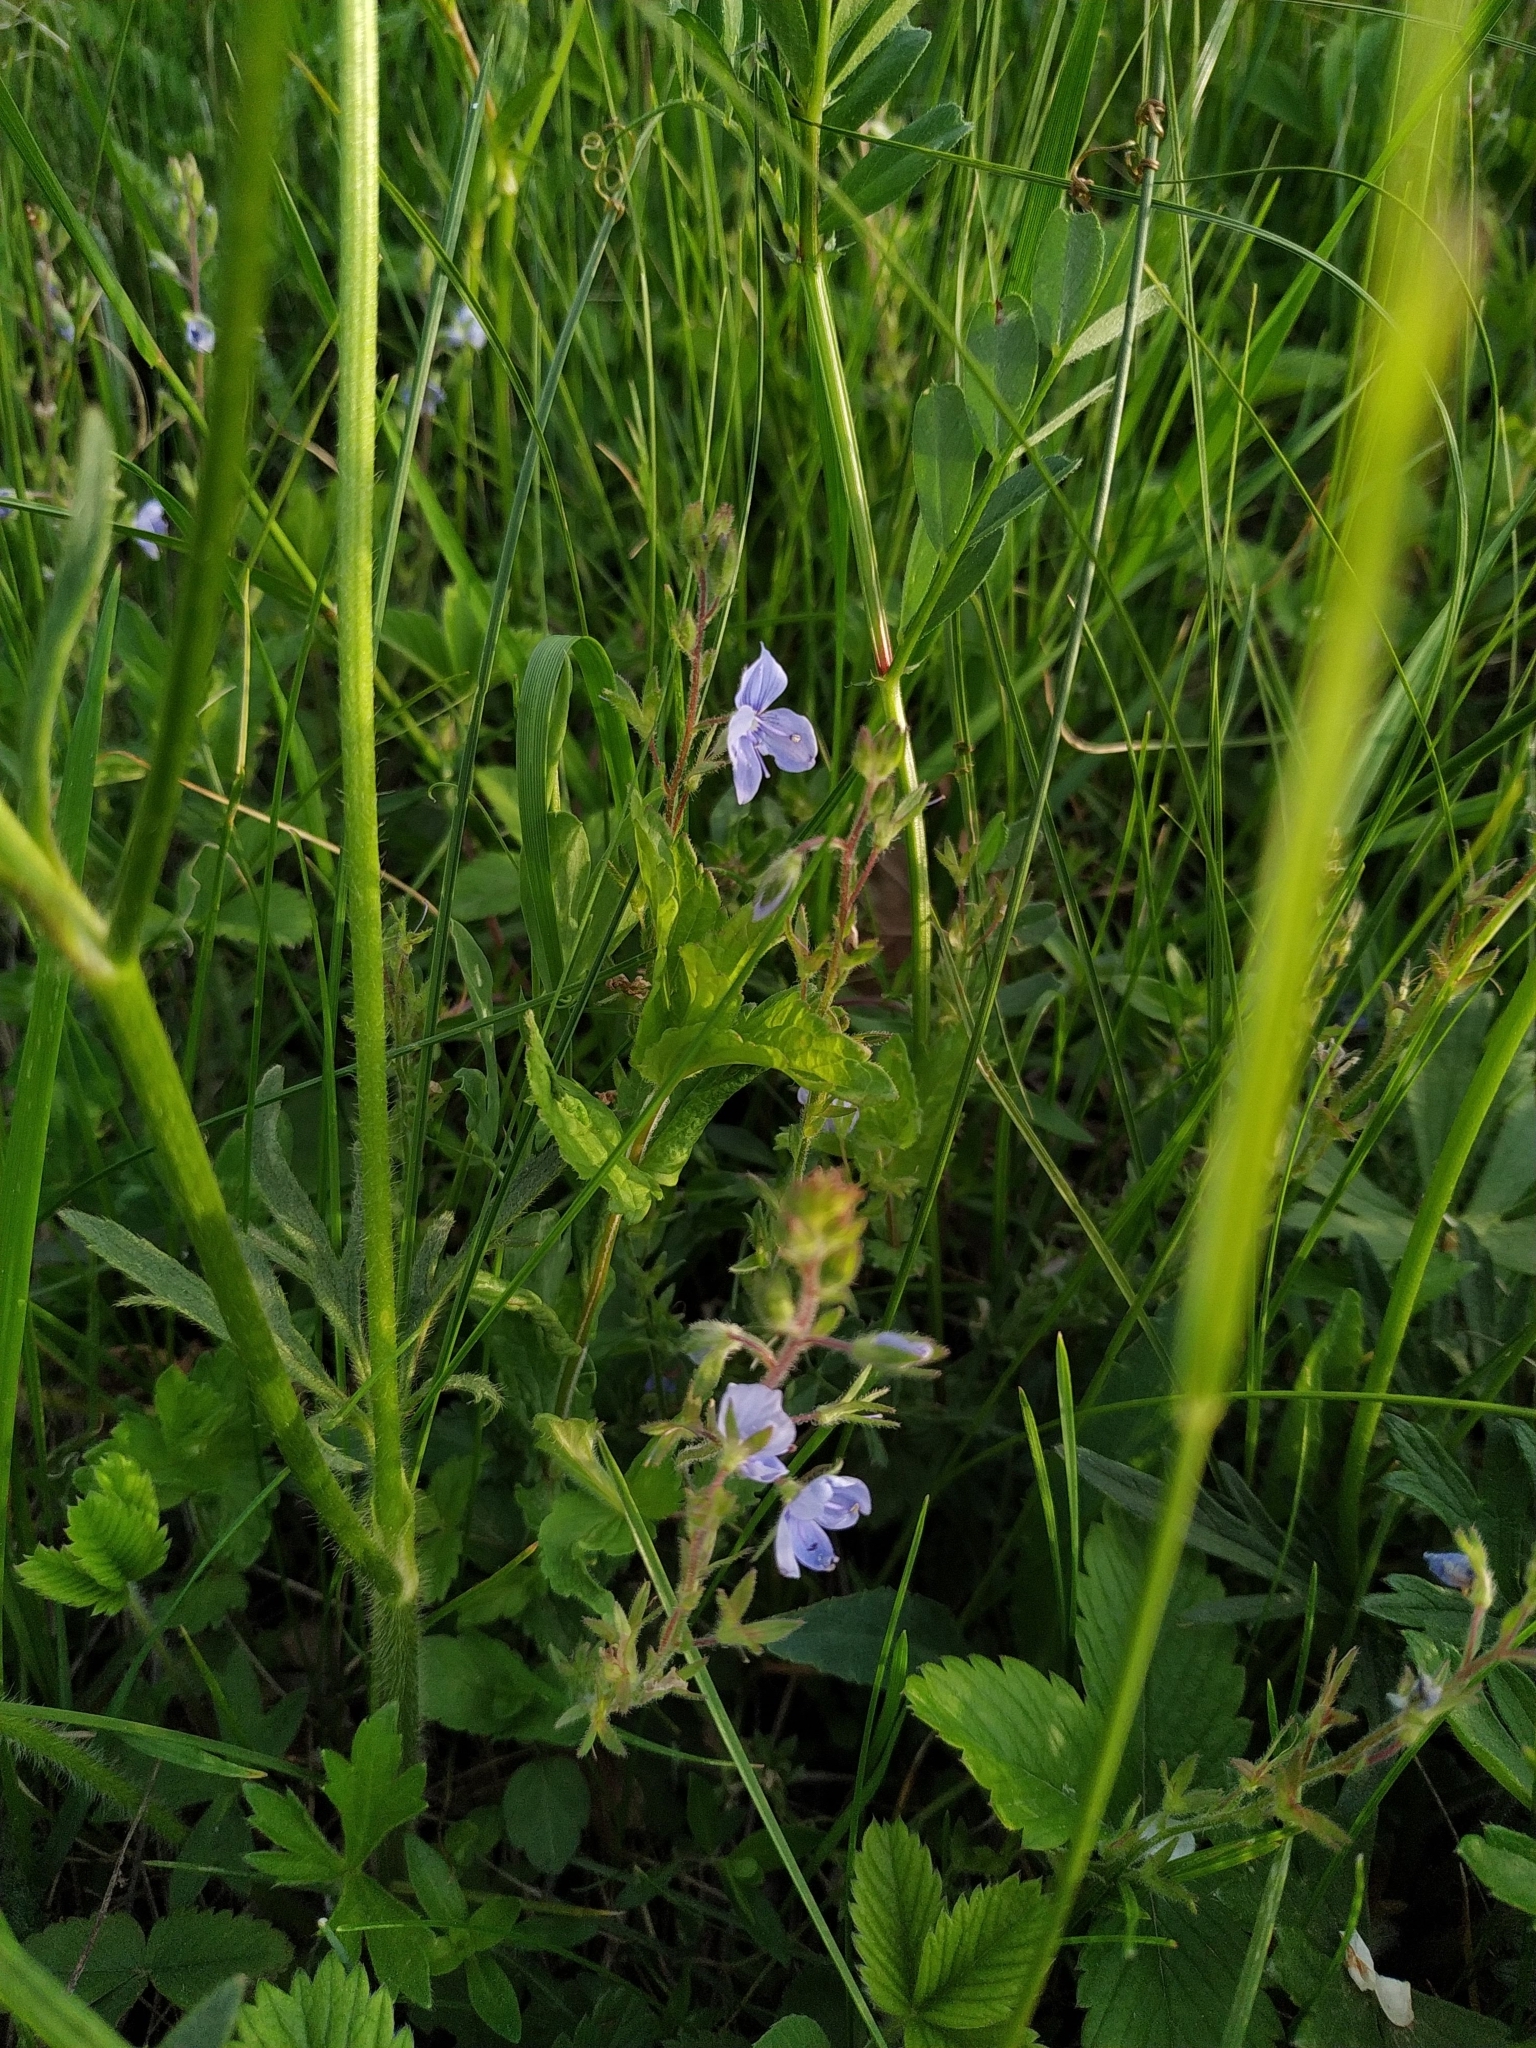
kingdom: Plantae
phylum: Tracheophyta
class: Magnoliopsida
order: Lamiales
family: Plantaginaceae
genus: Veronica
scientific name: Veronica chamaedrys
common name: Germander speedwell
